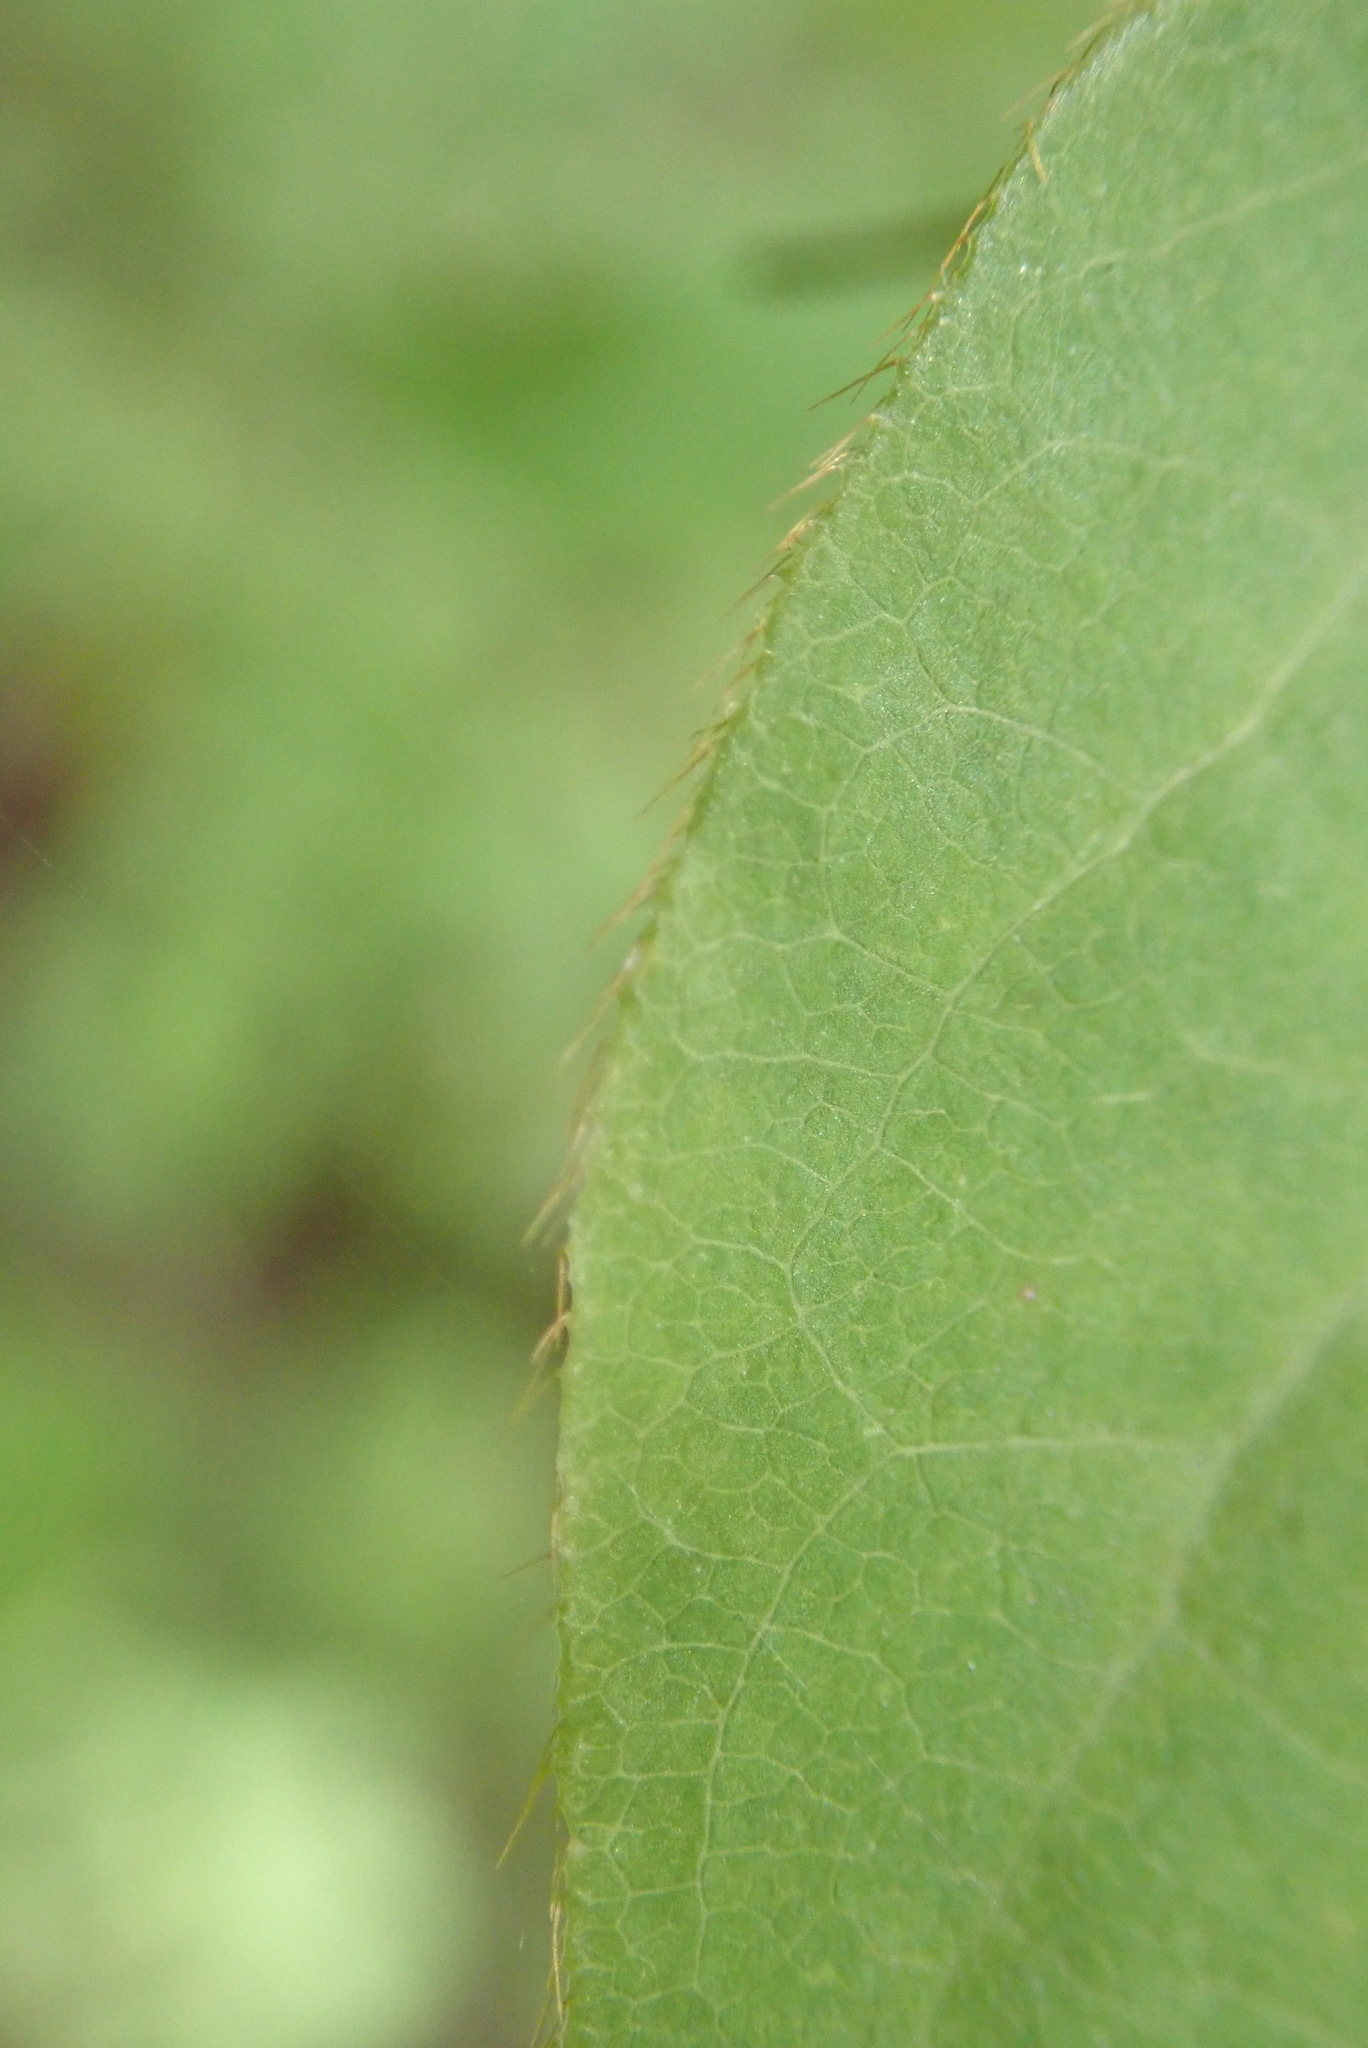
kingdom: Plantae
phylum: Tracheophyta
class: Magnoliopsida
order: Dipsacales
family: Caprifoliaceae
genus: Lonicera
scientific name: Lonicera canadensis
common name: American fly-honeysuckle
